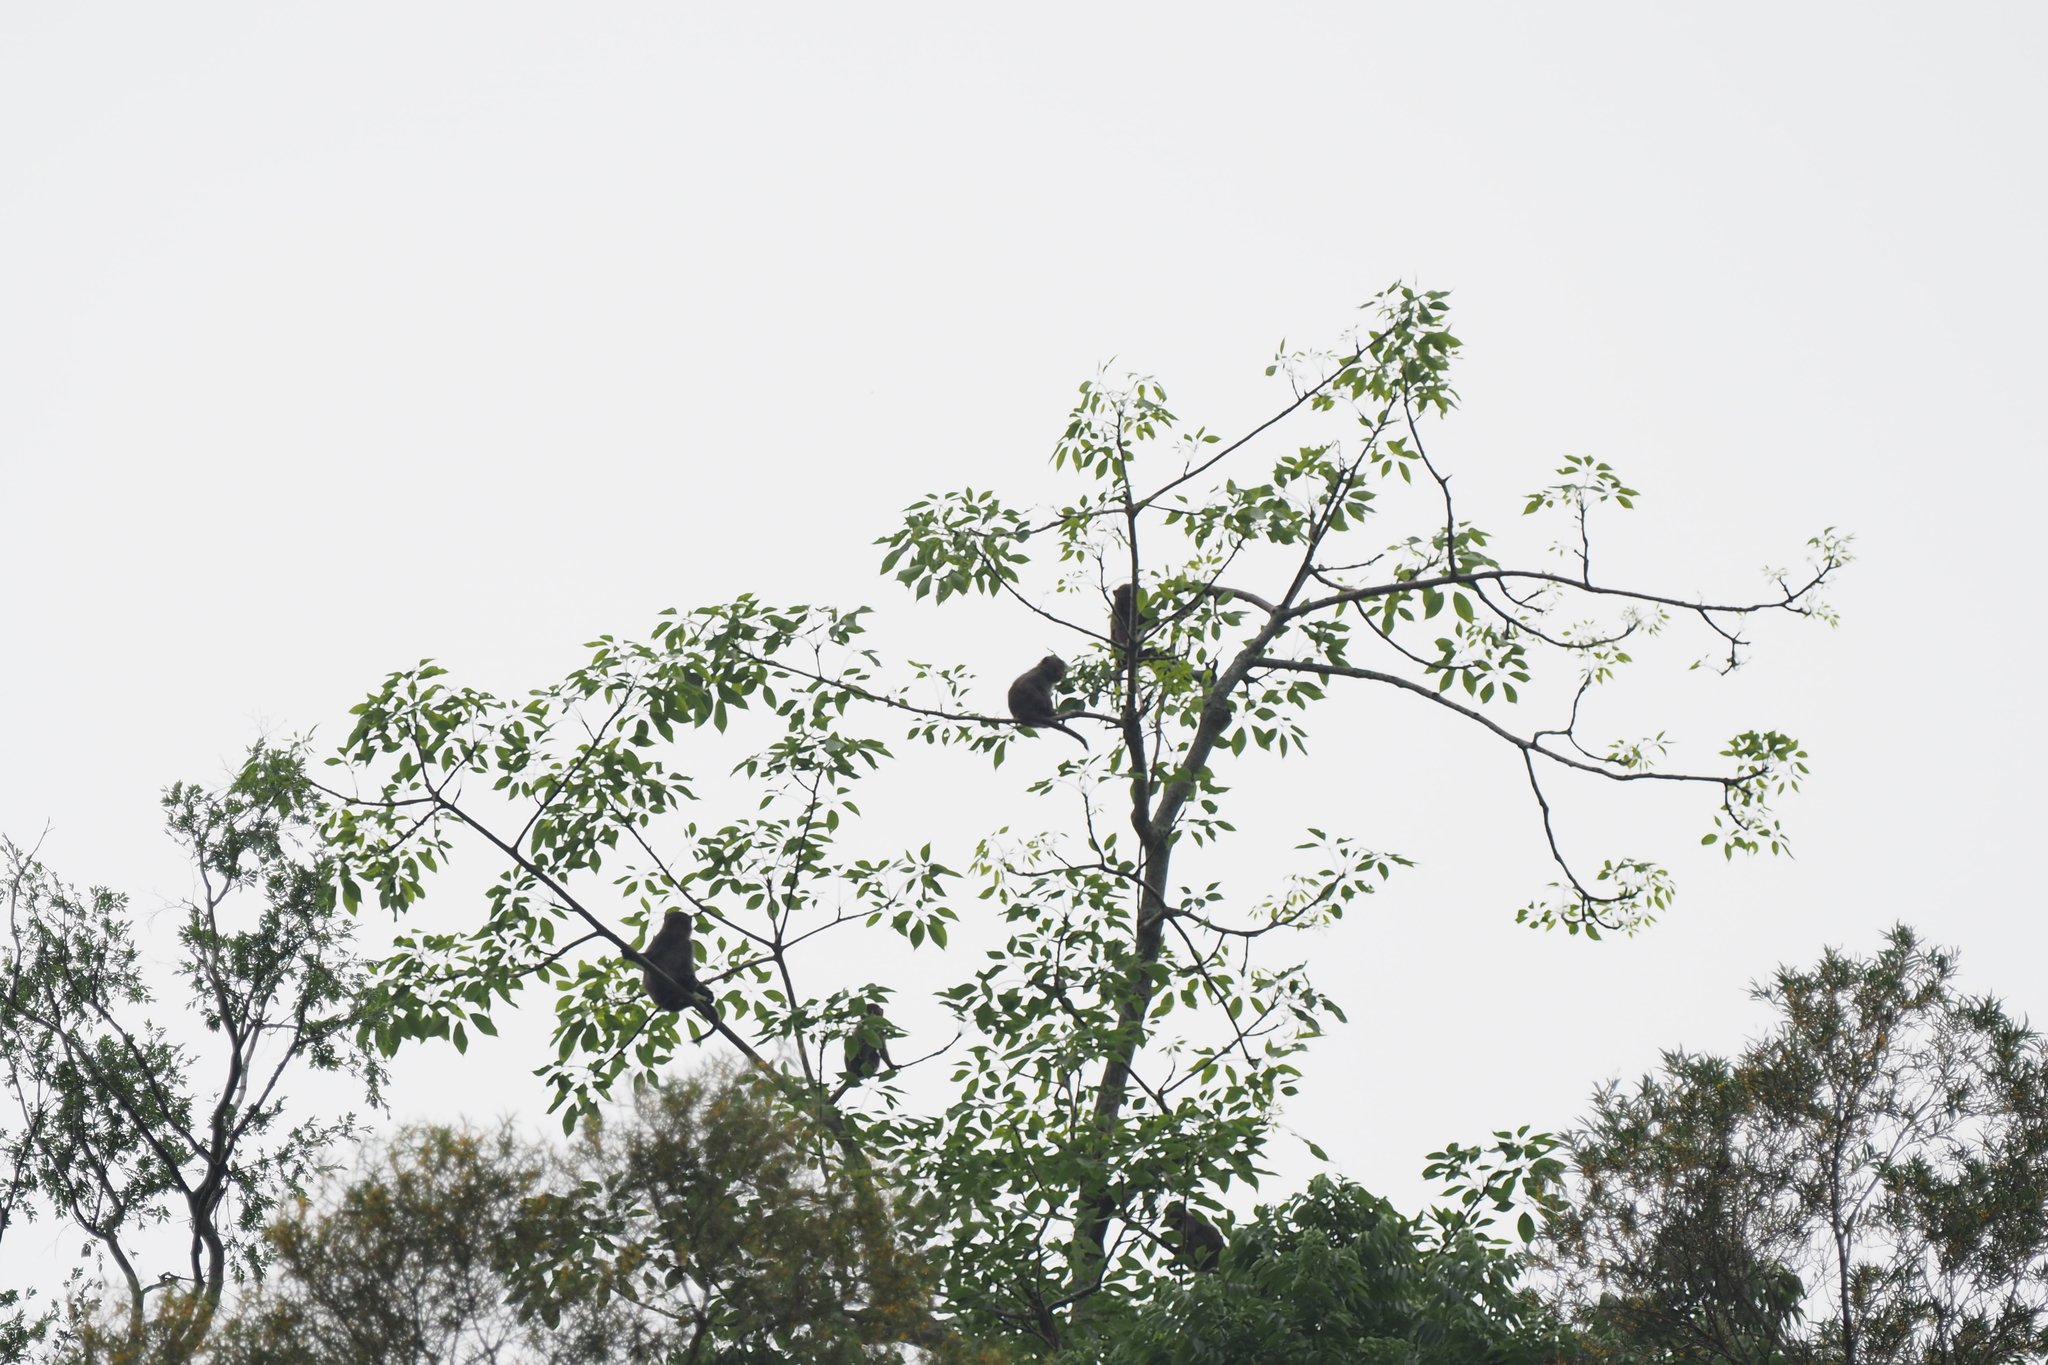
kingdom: Animalia
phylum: Chordata
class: Mammalia
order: Primates
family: Cercopithecidae
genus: Macaca
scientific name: Macaca cyclopis
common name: Formosan rock macaque
